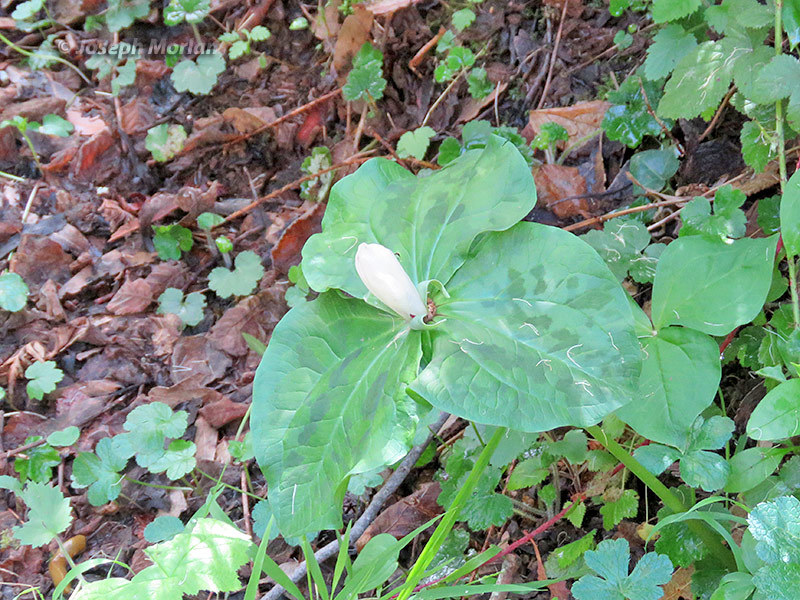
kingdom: Plantae
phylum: Tracheophyta
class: Liliopsida
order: Liliales
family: Melanthiaceae
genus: Trillium
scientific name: Trillium chloropetalum
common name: Giant trillium
